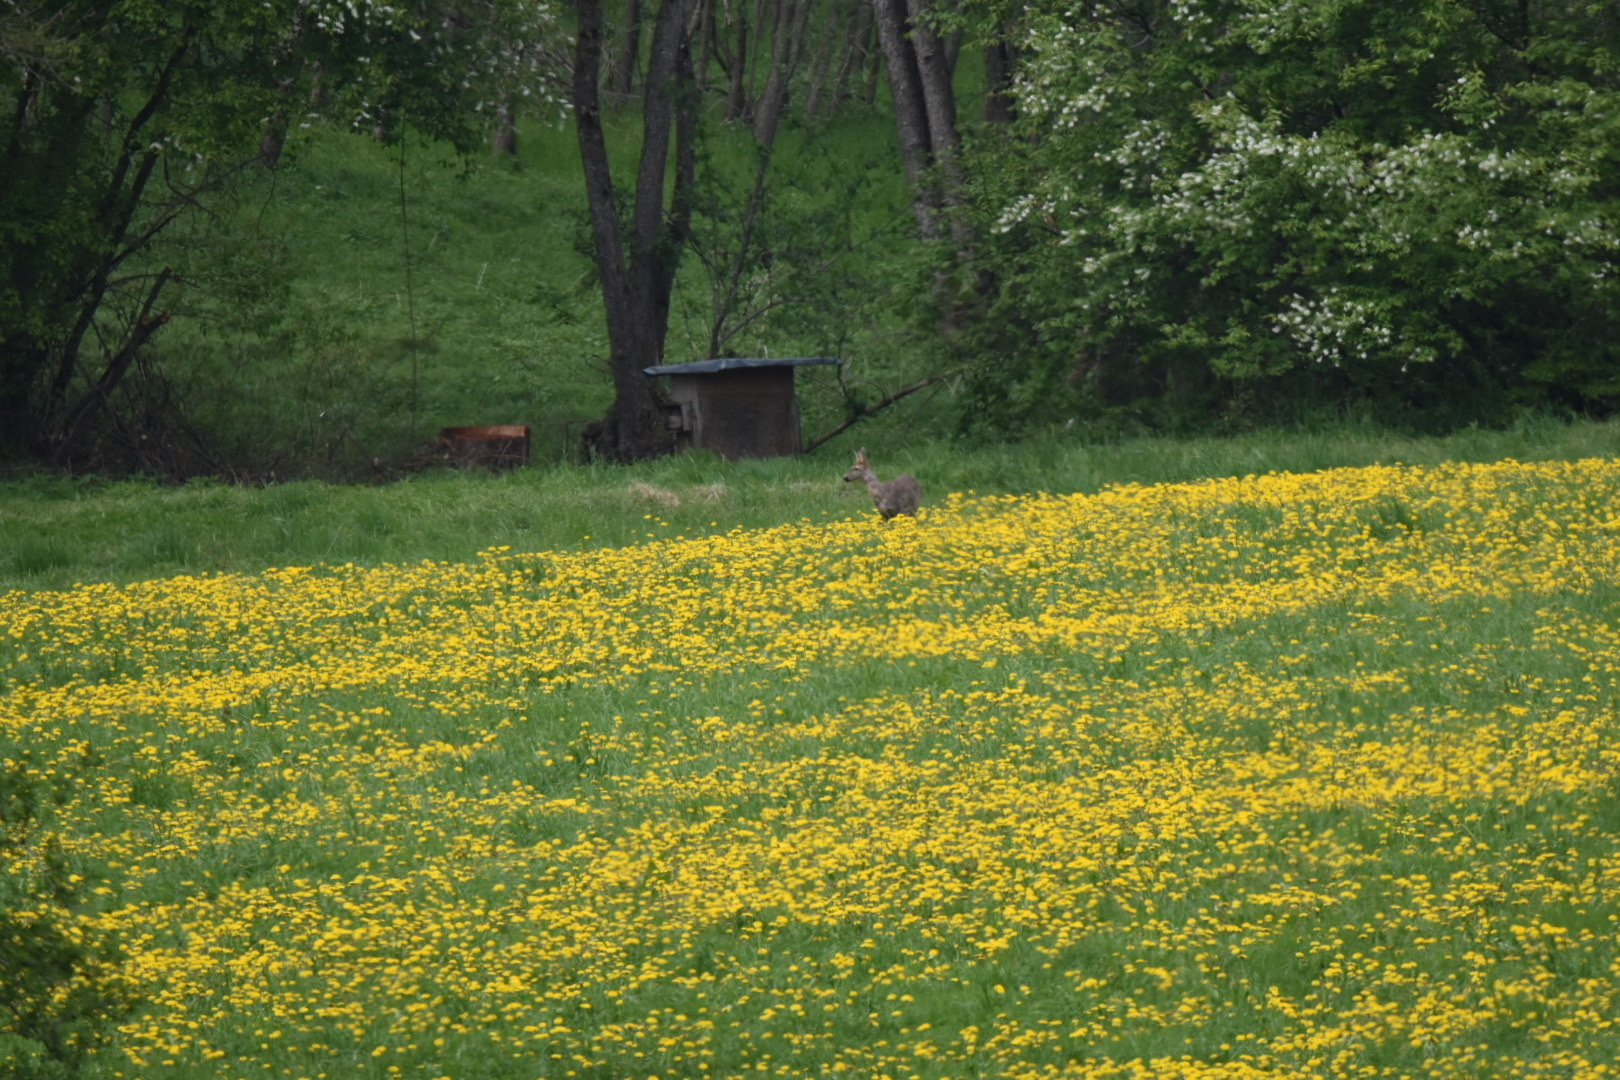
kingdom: Animalia
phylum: Chordata
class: Mammalia
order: Artiodactyla
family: Cervidae
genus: Capreolus
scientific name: Capreolus capreolus
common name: Western roe deer
